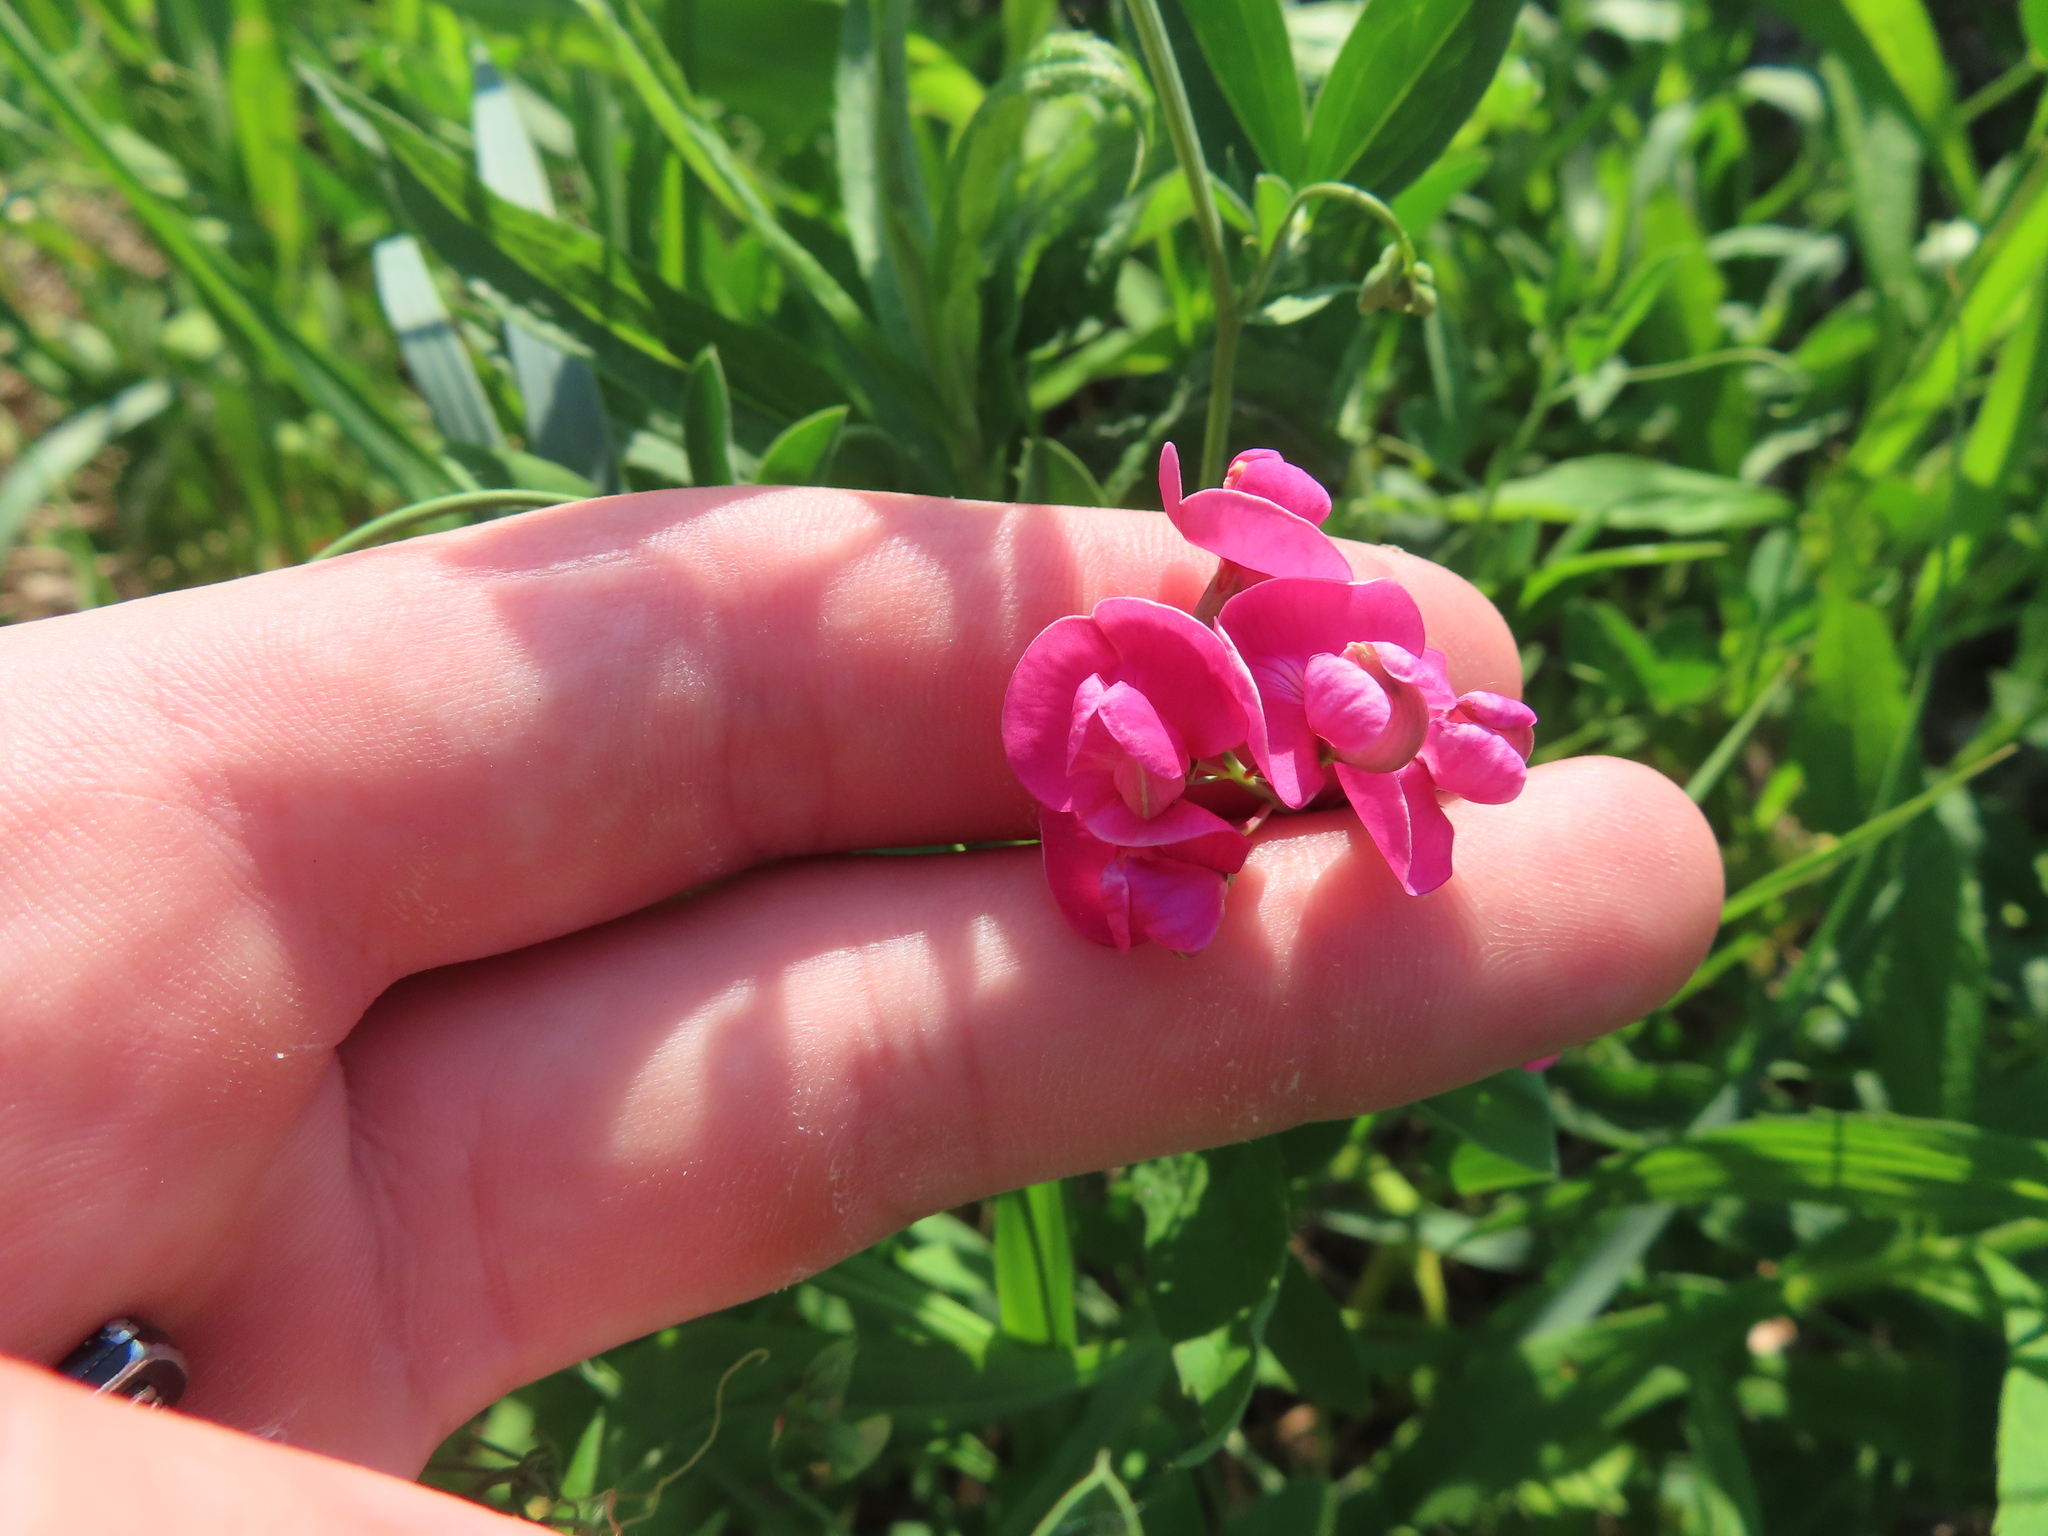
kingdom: Plantae
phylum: Tracheophyta
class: Magnoliopsida
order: Fabales
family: Fabaceae
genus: Lathyrus
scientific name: Lathyrus tuberosus
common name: Tuberous pea
